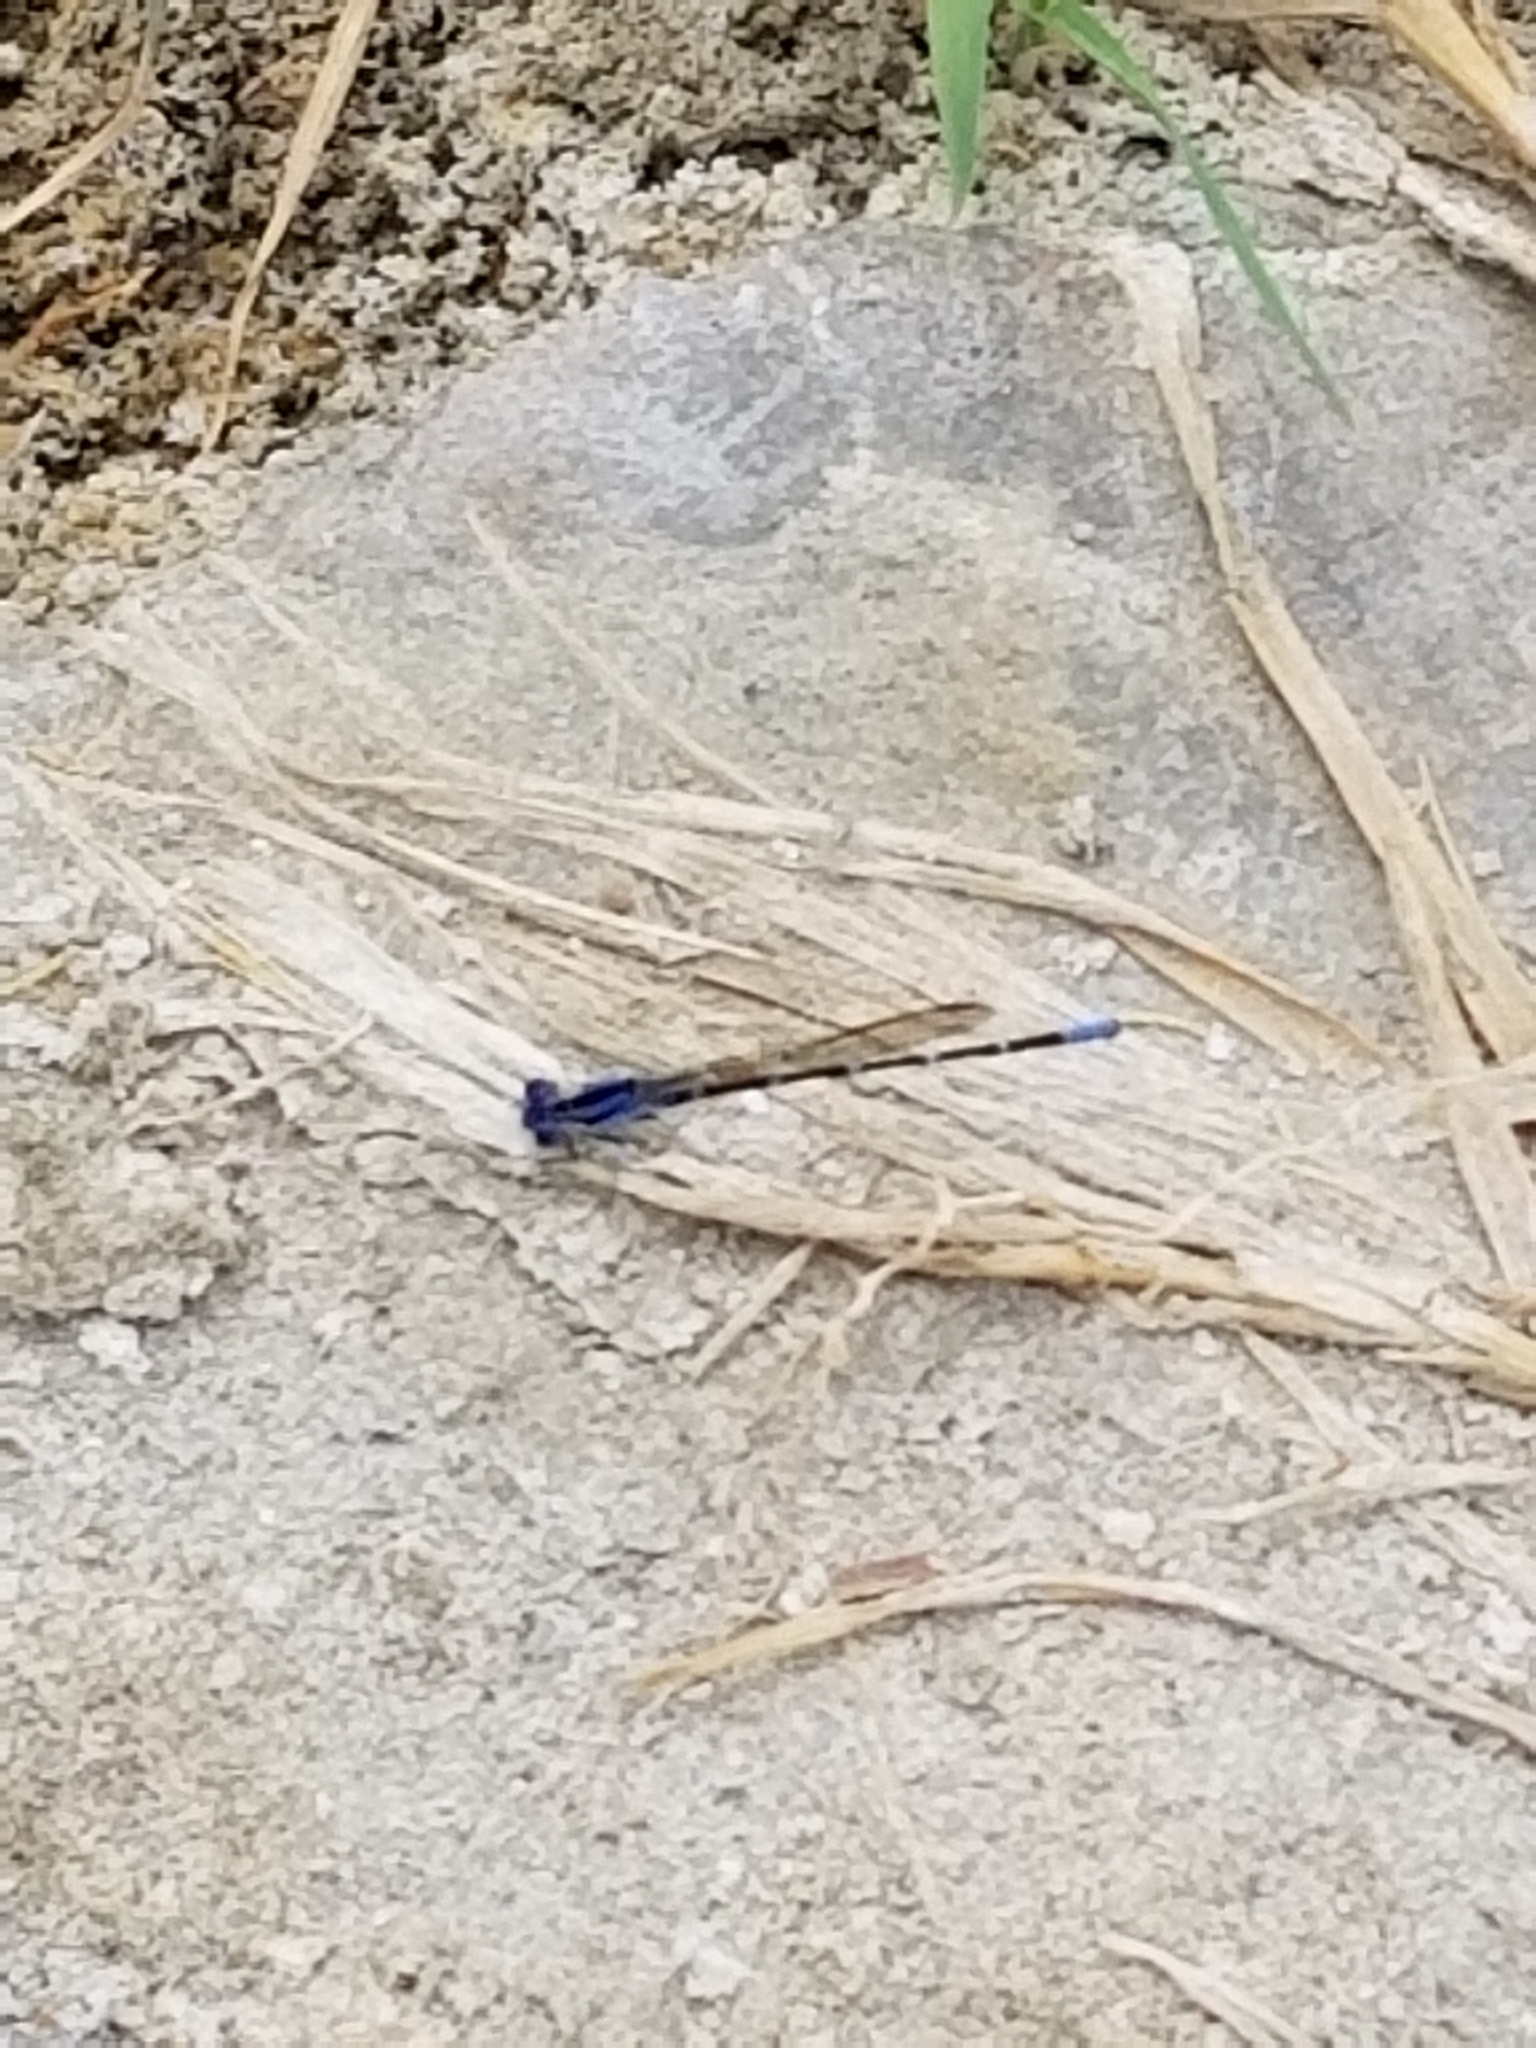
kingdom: Animalia
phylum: Arthropoda
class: Insecta
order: Odonata
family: Coenagrionidae
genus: Argia
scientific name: Argia sedula
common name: Blue-ringed dancer
